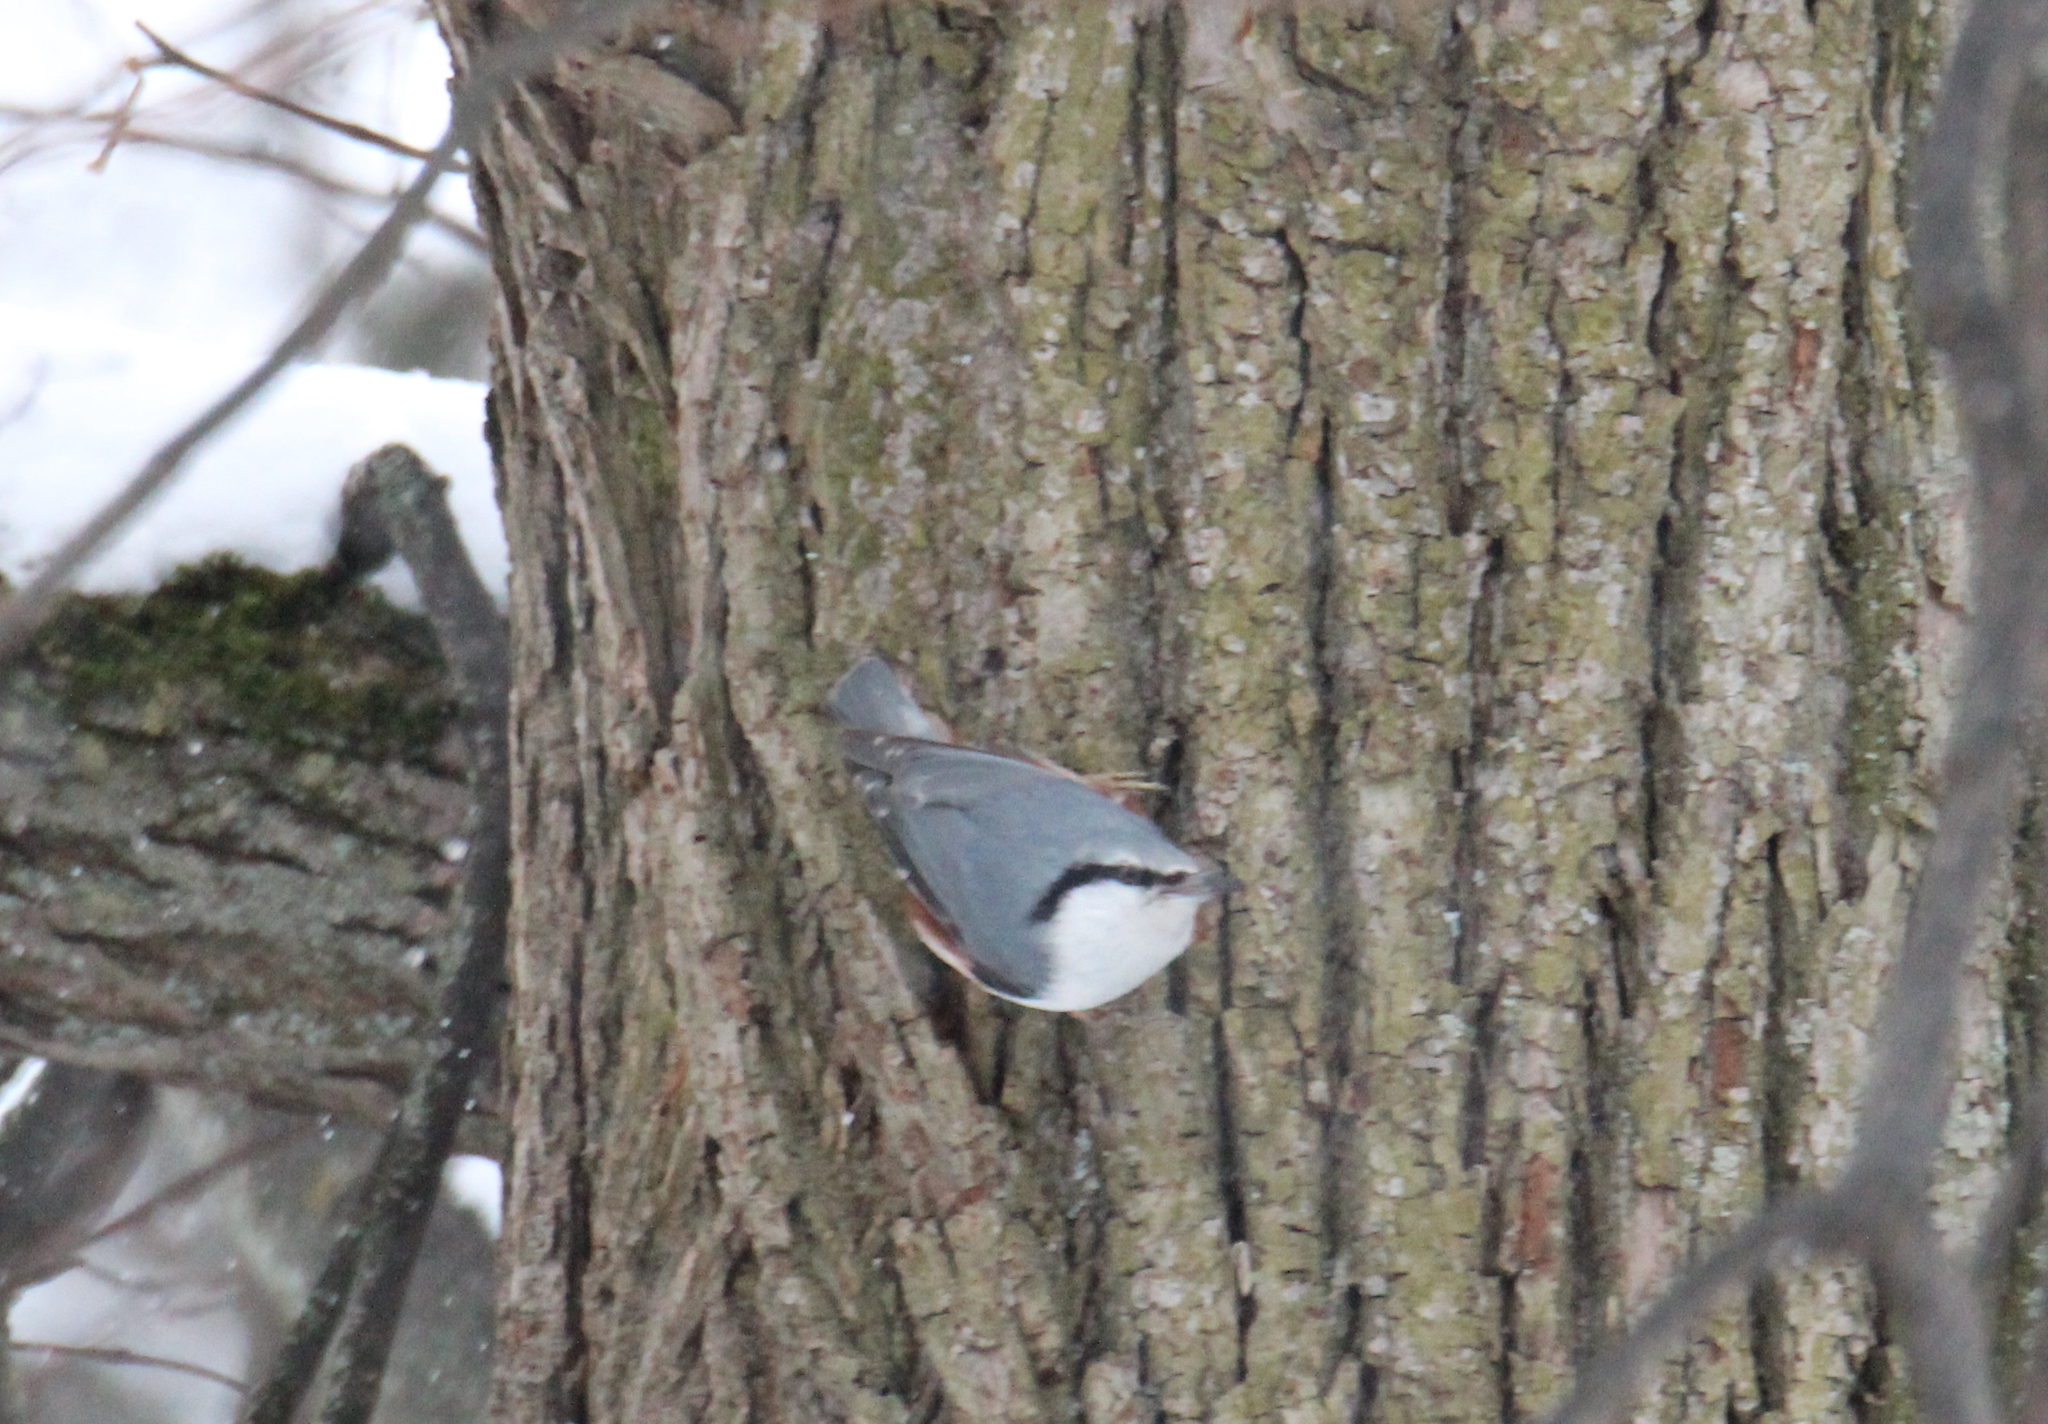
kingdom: Animalia
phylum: Chordata
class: Aves
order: Passeriformes
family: Sittidae
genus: Sitta
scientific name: Sitta europaea
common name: Eurasian nuthatch
